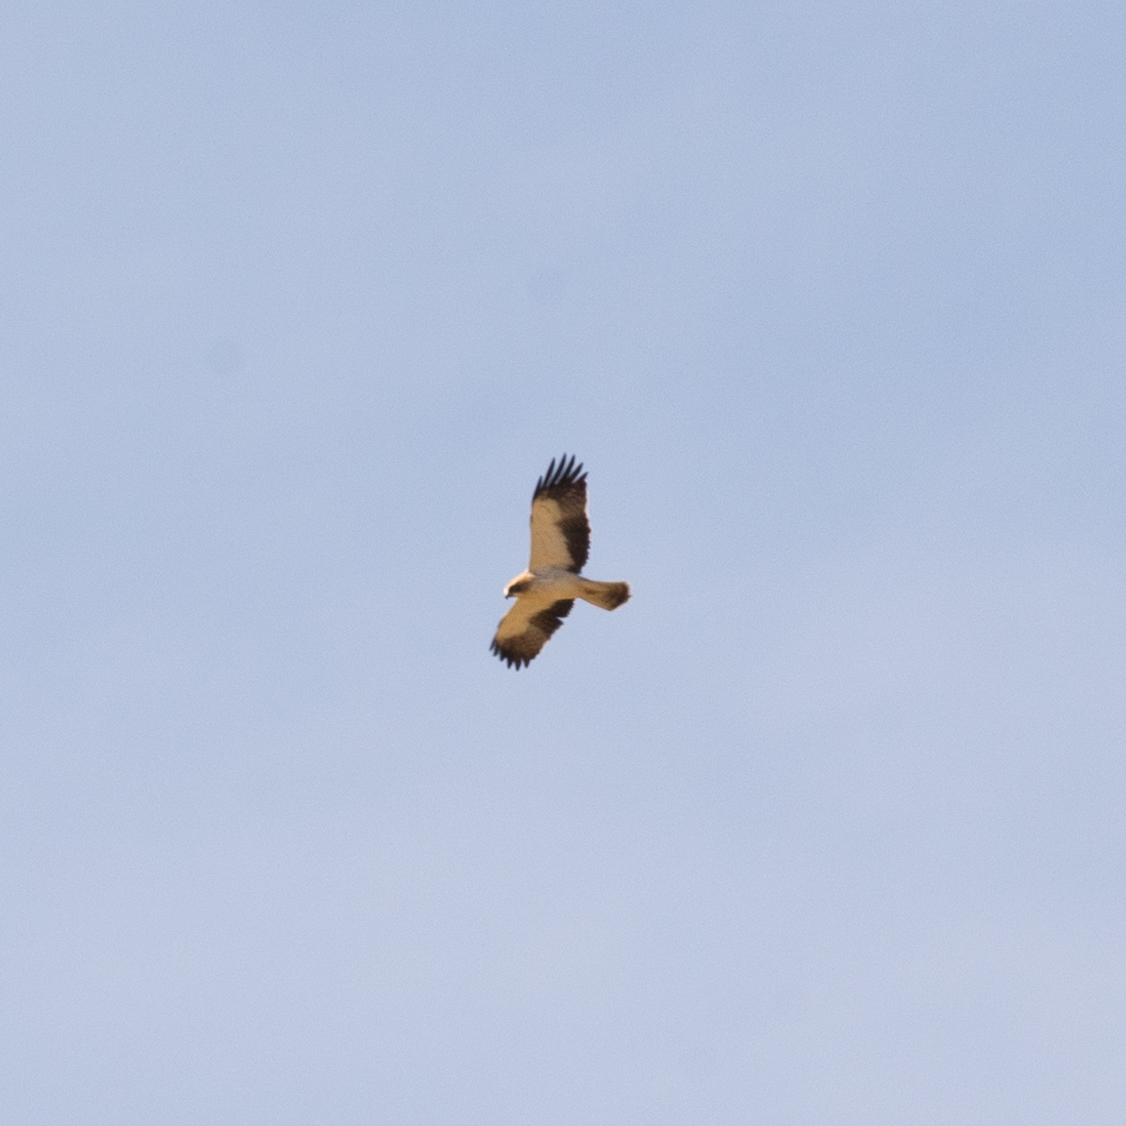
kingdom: Animalia
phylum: Chordata
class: Aves
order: Accipitriformes
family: Accipitridae
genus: Hieraaetus
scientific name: Hieraaetus pennatus
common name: Booted eagle
